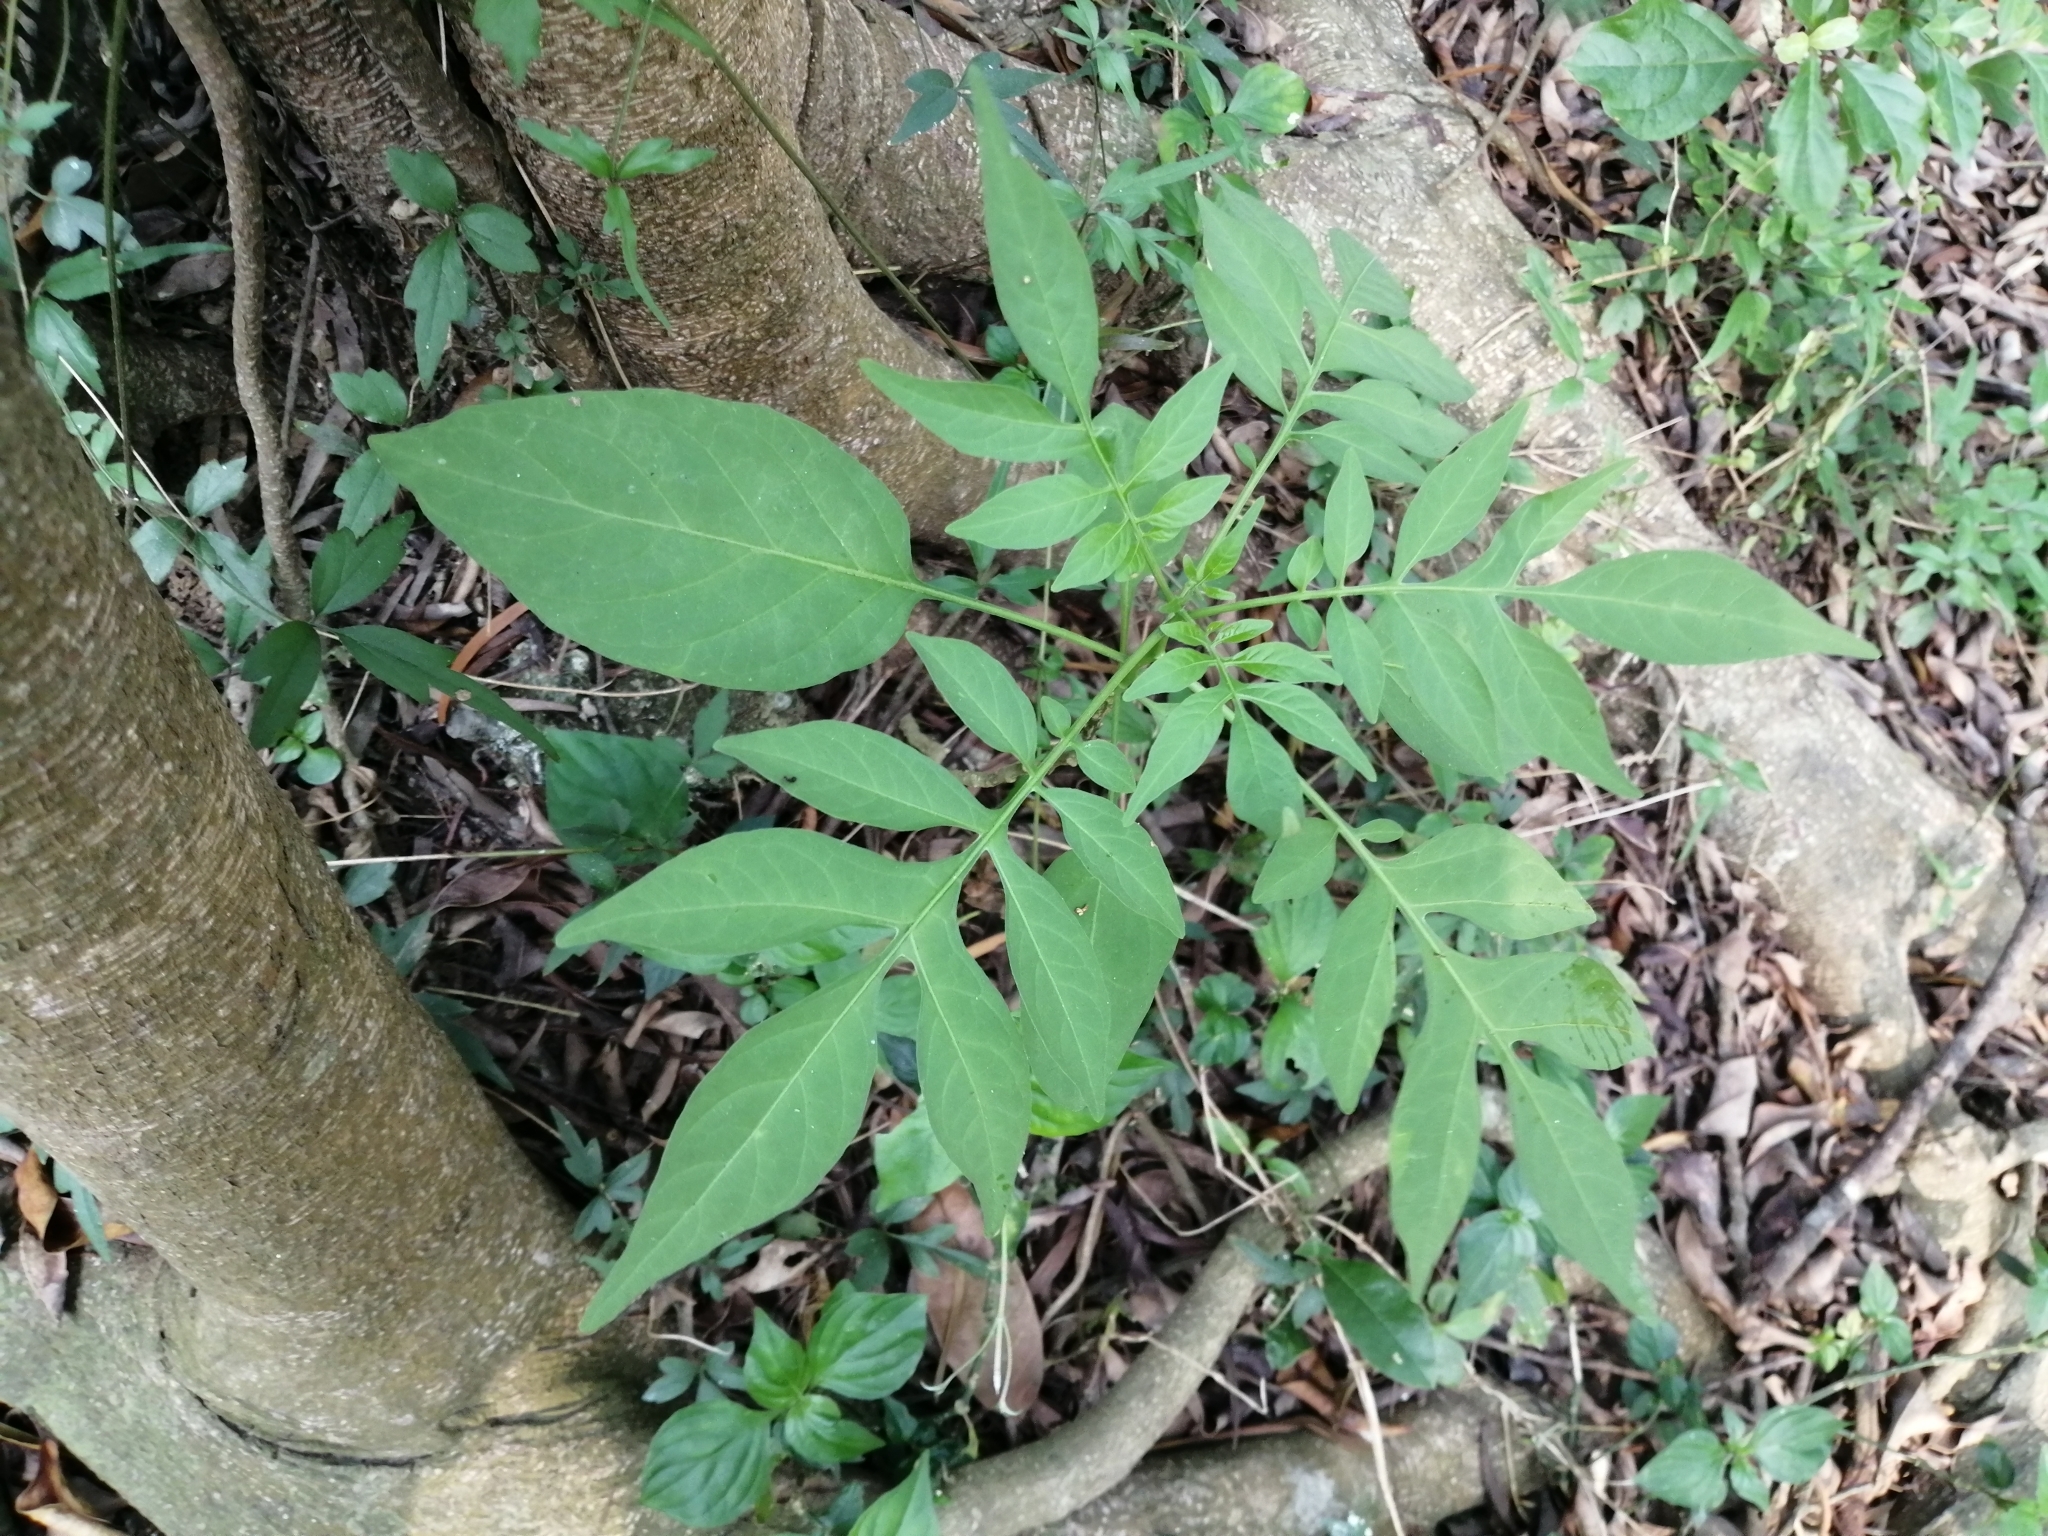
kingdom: Plantae
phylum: Tracheophyta
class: Magnoliopsida
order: Solanales
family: Solanaceae
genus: Solanum
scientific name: Solanum seaforthianum
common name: Brazilian nightshade
